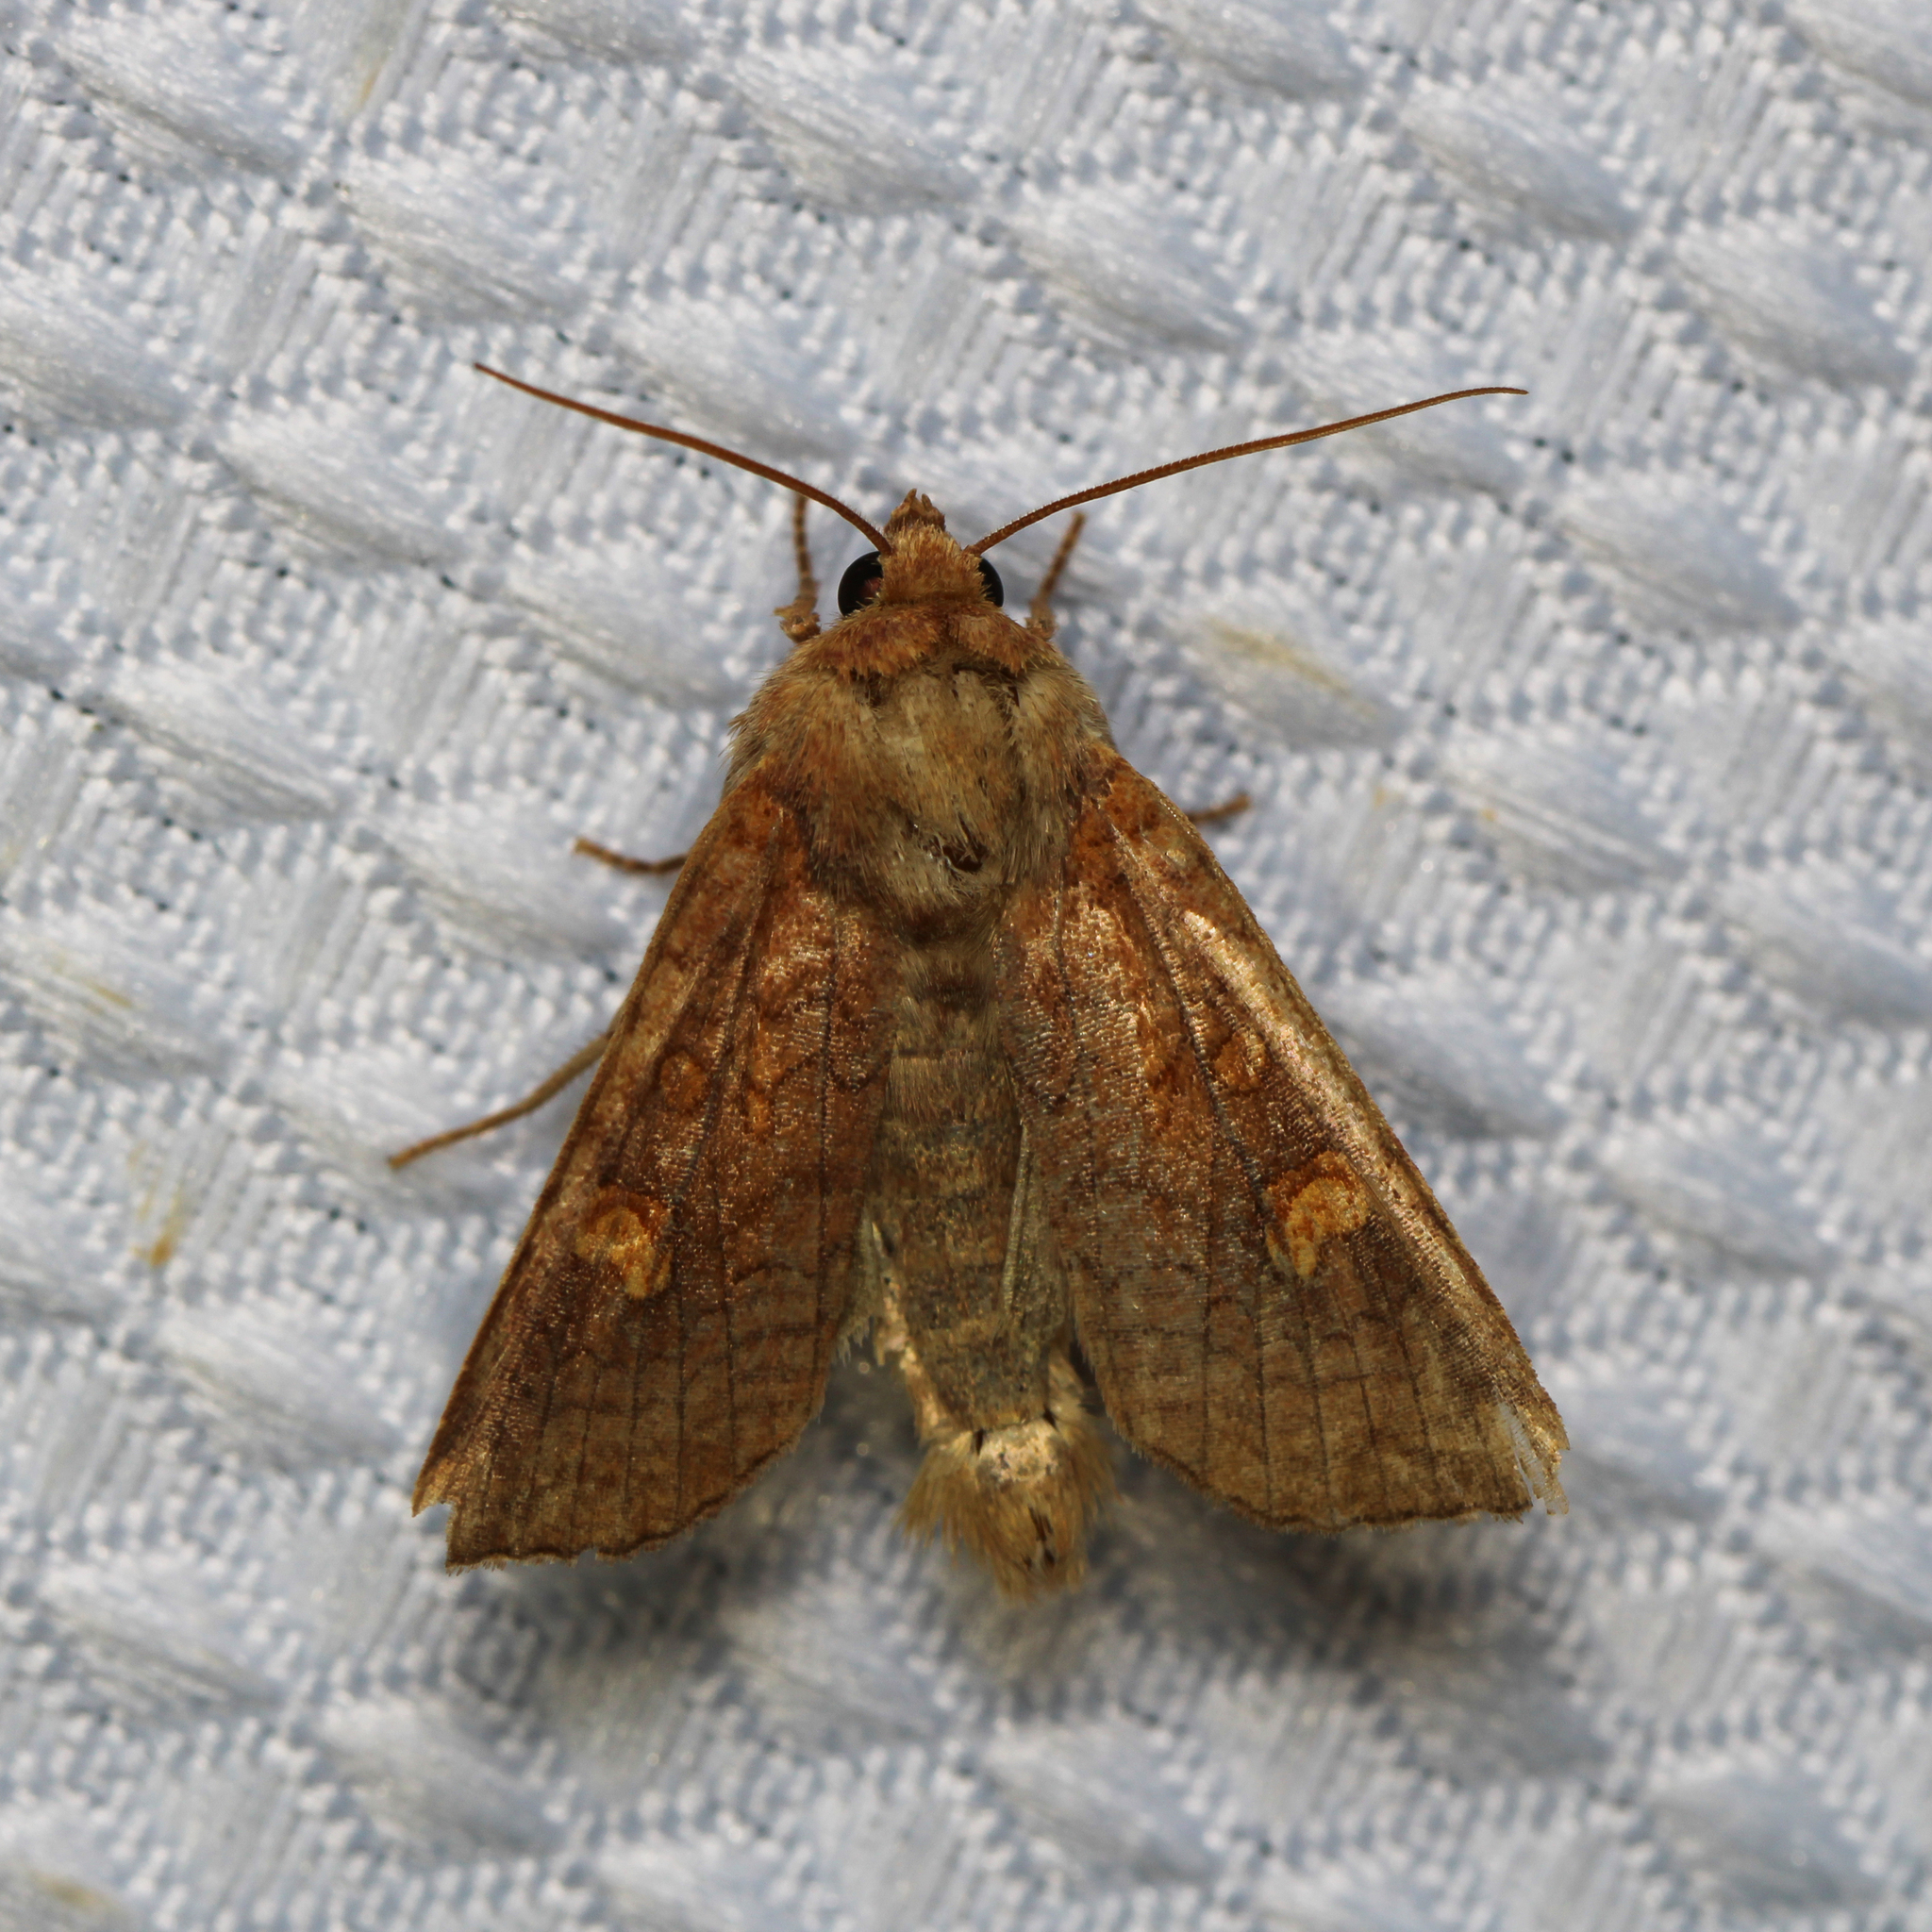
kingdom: Animalia
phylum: Arthropoda
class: Insecta
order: Lepidoptera
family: Noctuidae
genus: Amphipoea
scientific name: Amphipoea
